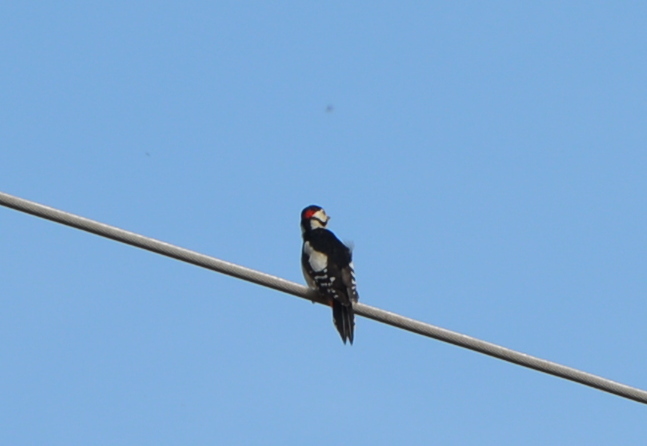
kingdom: Animalia
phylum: Chordata
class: Aves
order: Piciformes
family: Picidae
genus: Dendrocopos
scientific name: Dendrocopos major
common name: Great spotted woodpecker
